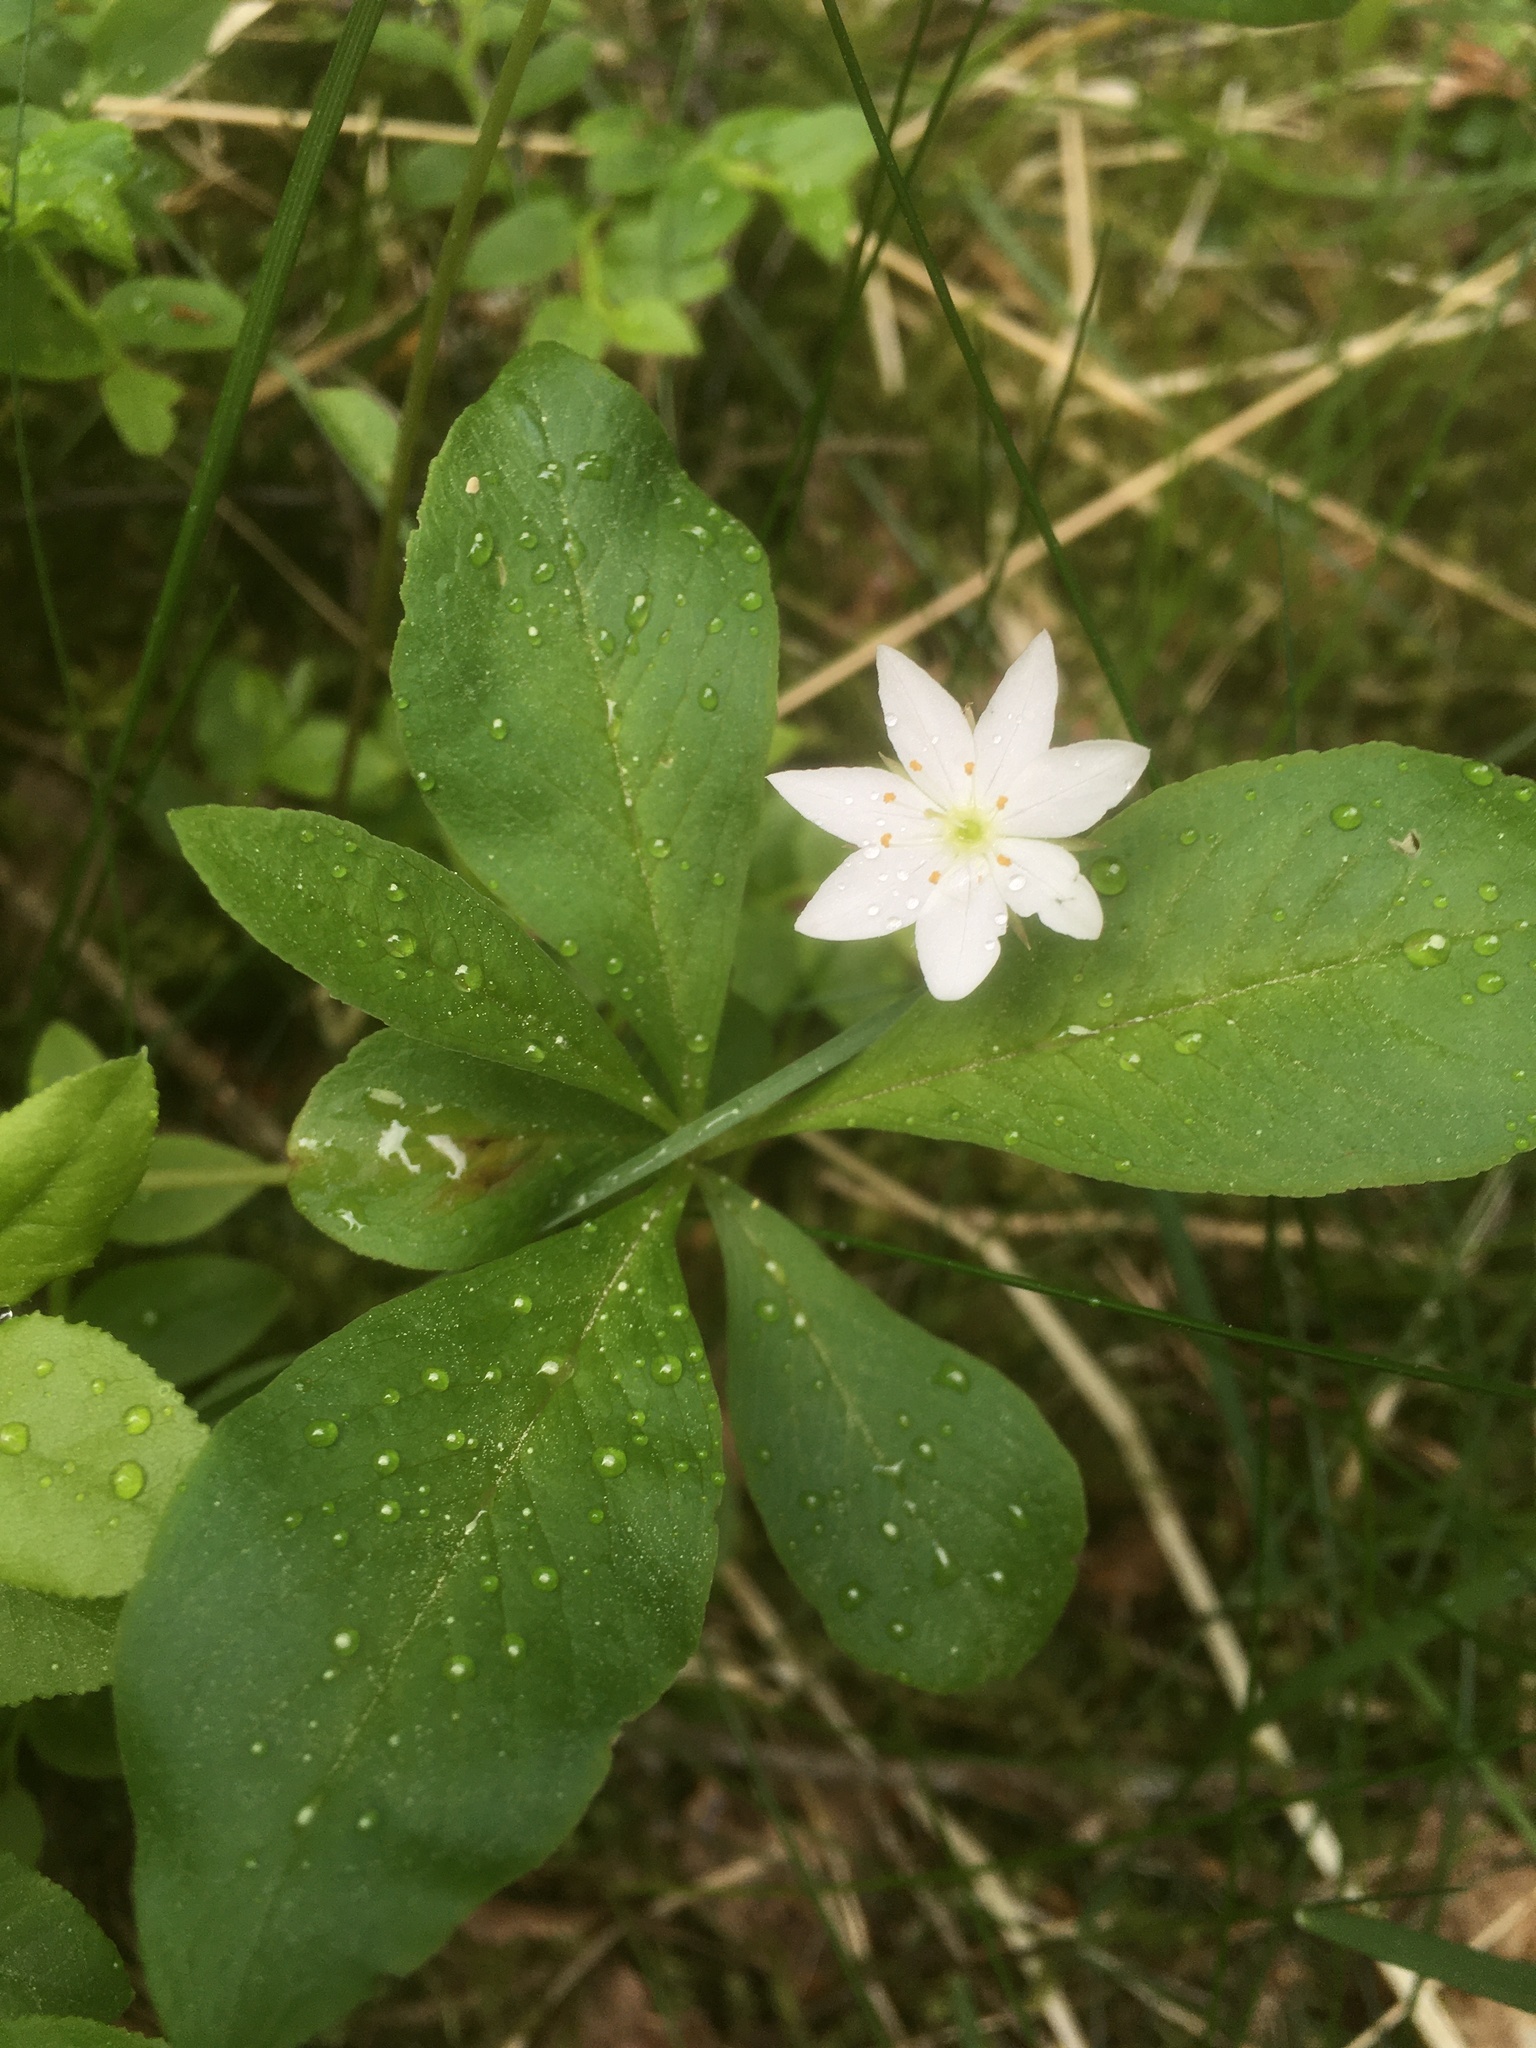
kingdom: Plantae
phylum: Tracheophyta
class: Magnoliopsida
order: Ericales
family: Primulaceae
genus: Lysimachia
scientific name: Lysimachia europaea
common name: Arctic starflower
